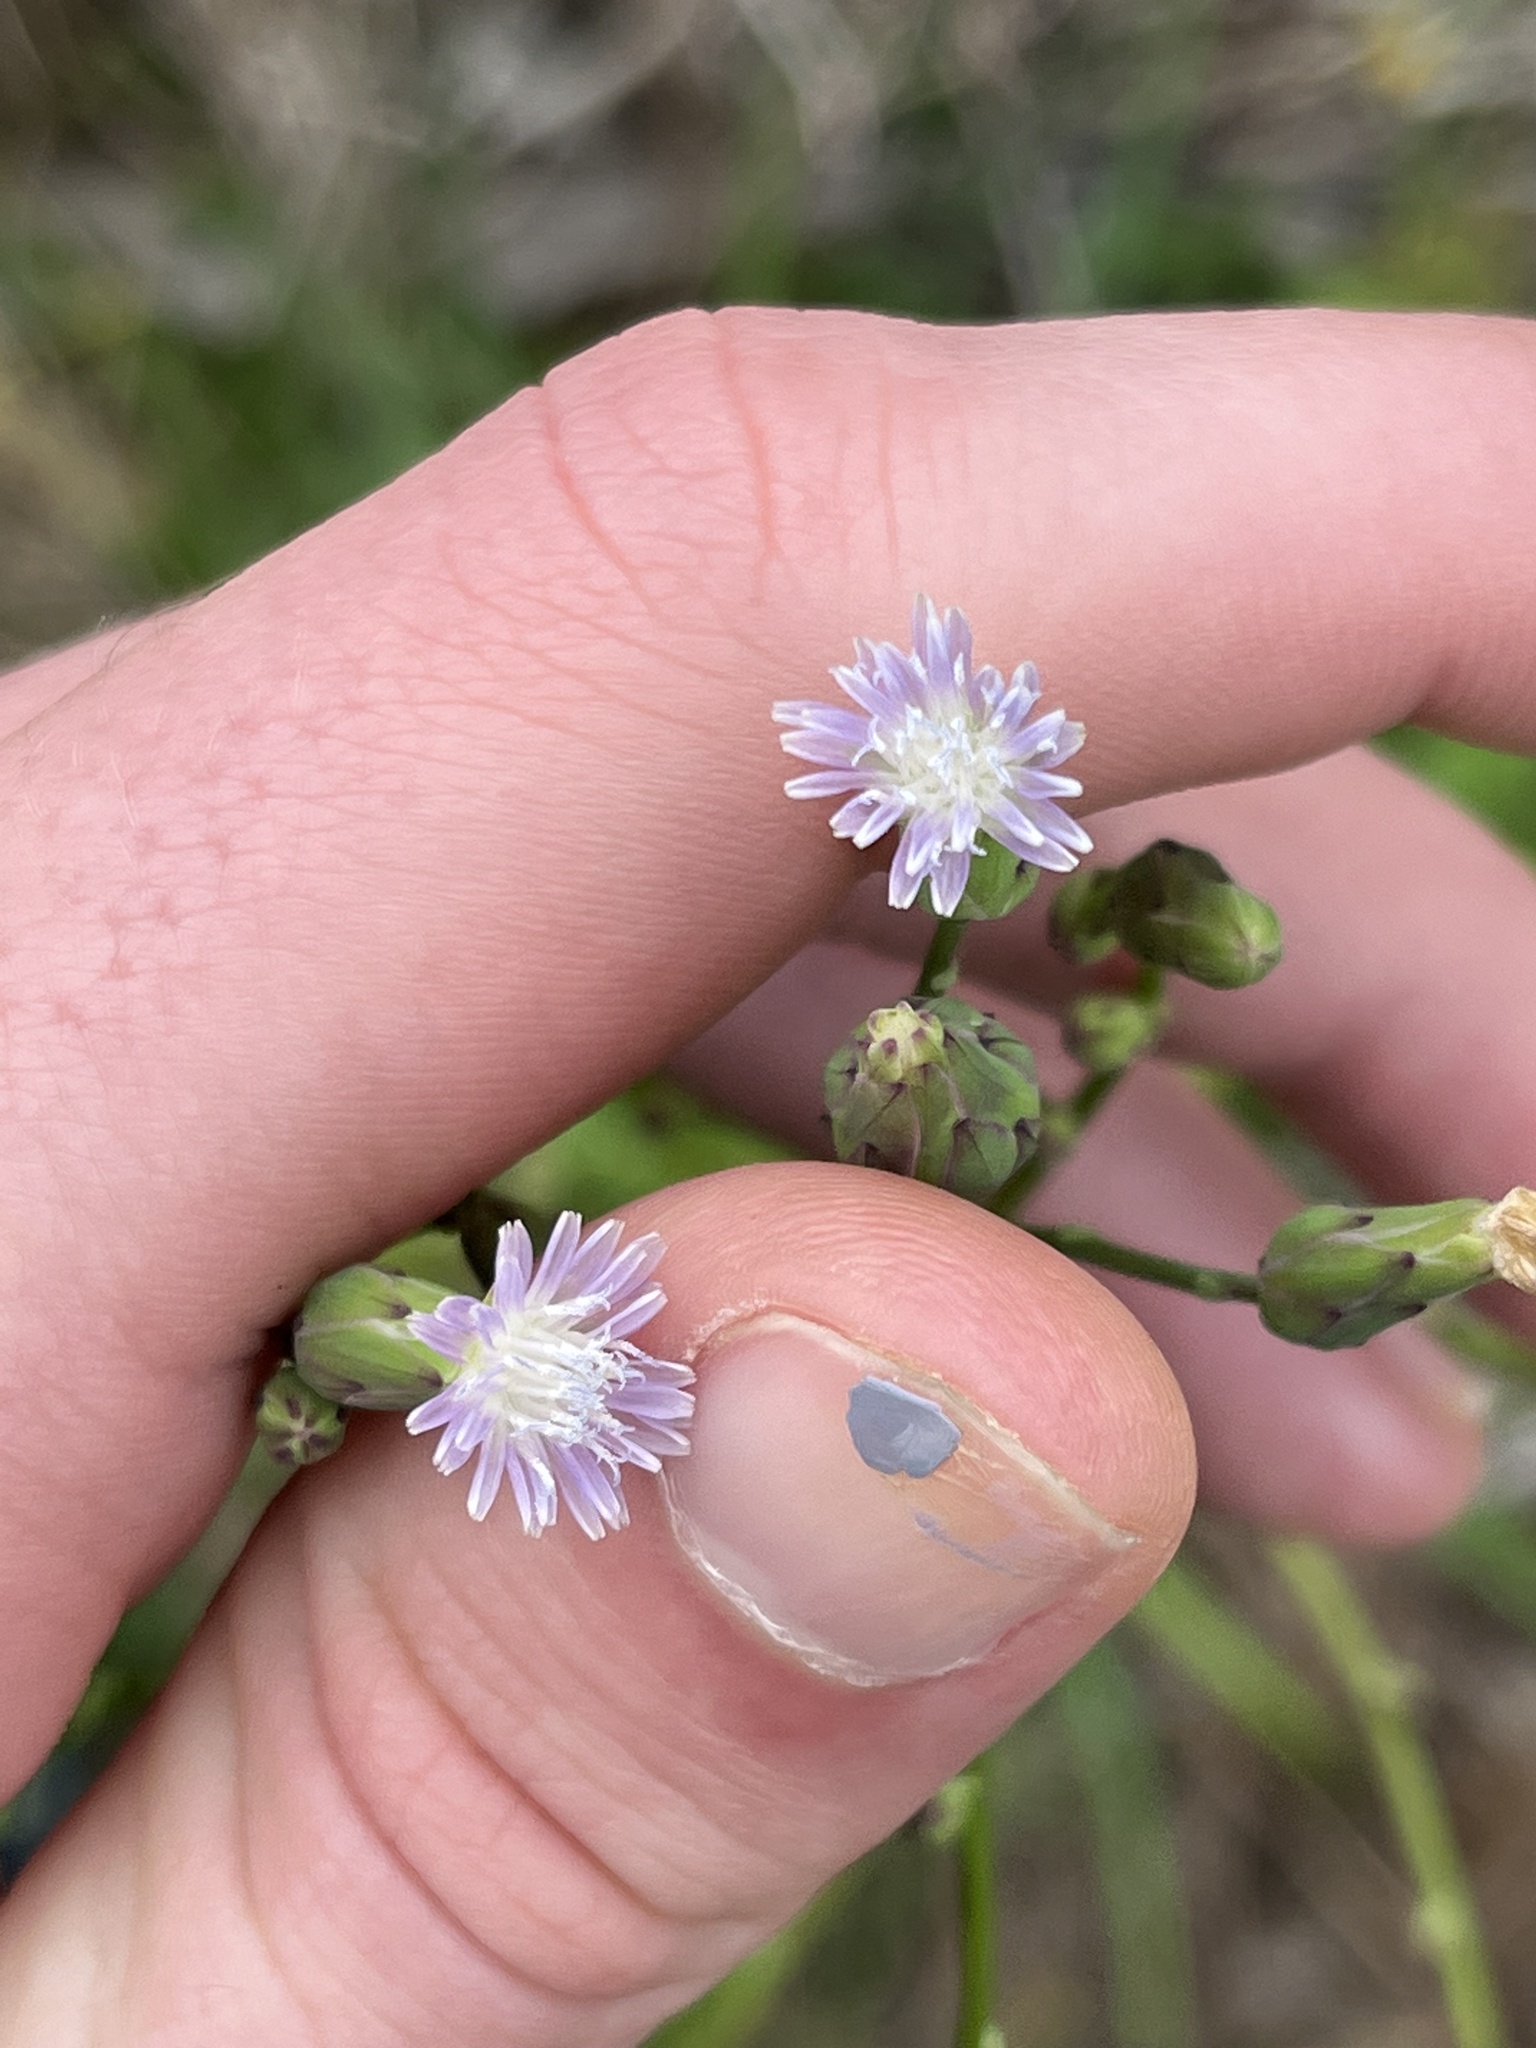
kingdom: Plantae
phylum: Tracheophyta
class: Magnoliopsida
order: Asterales
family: Asteraceae
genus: Lactuca
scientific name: Lactuca graminifolia
